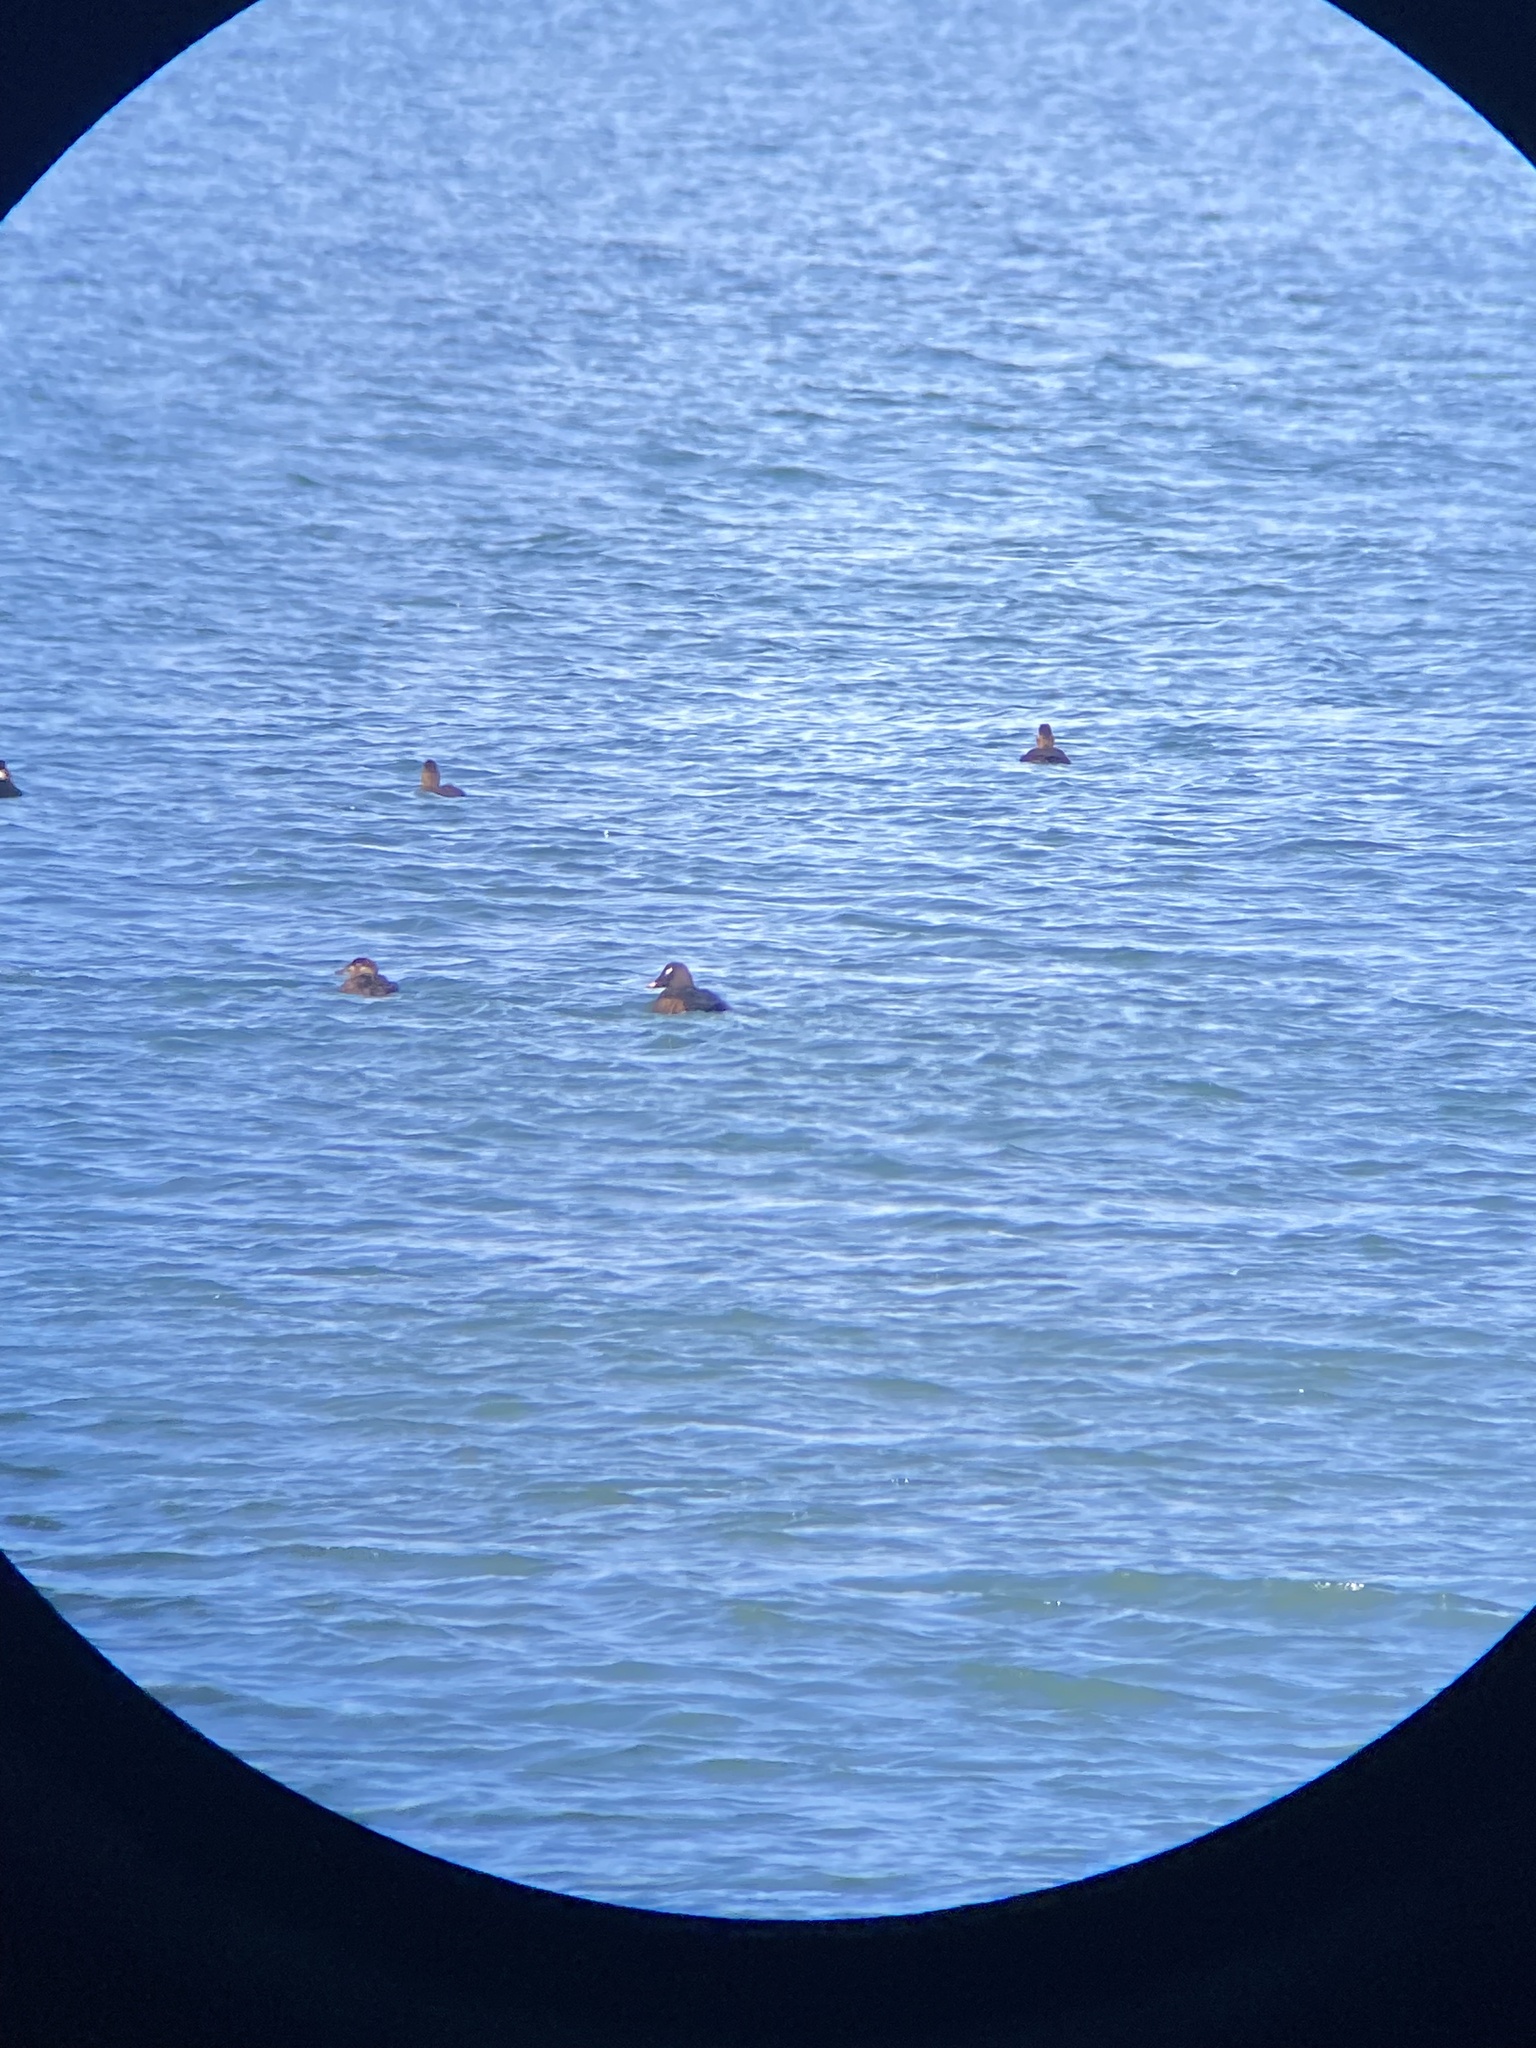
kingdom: Animalia
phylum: Chordata
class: Aves
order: Anseriformes
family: Anatidae
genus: Melanitta
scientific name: Melanitta deglandi
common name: White-winged scoter
